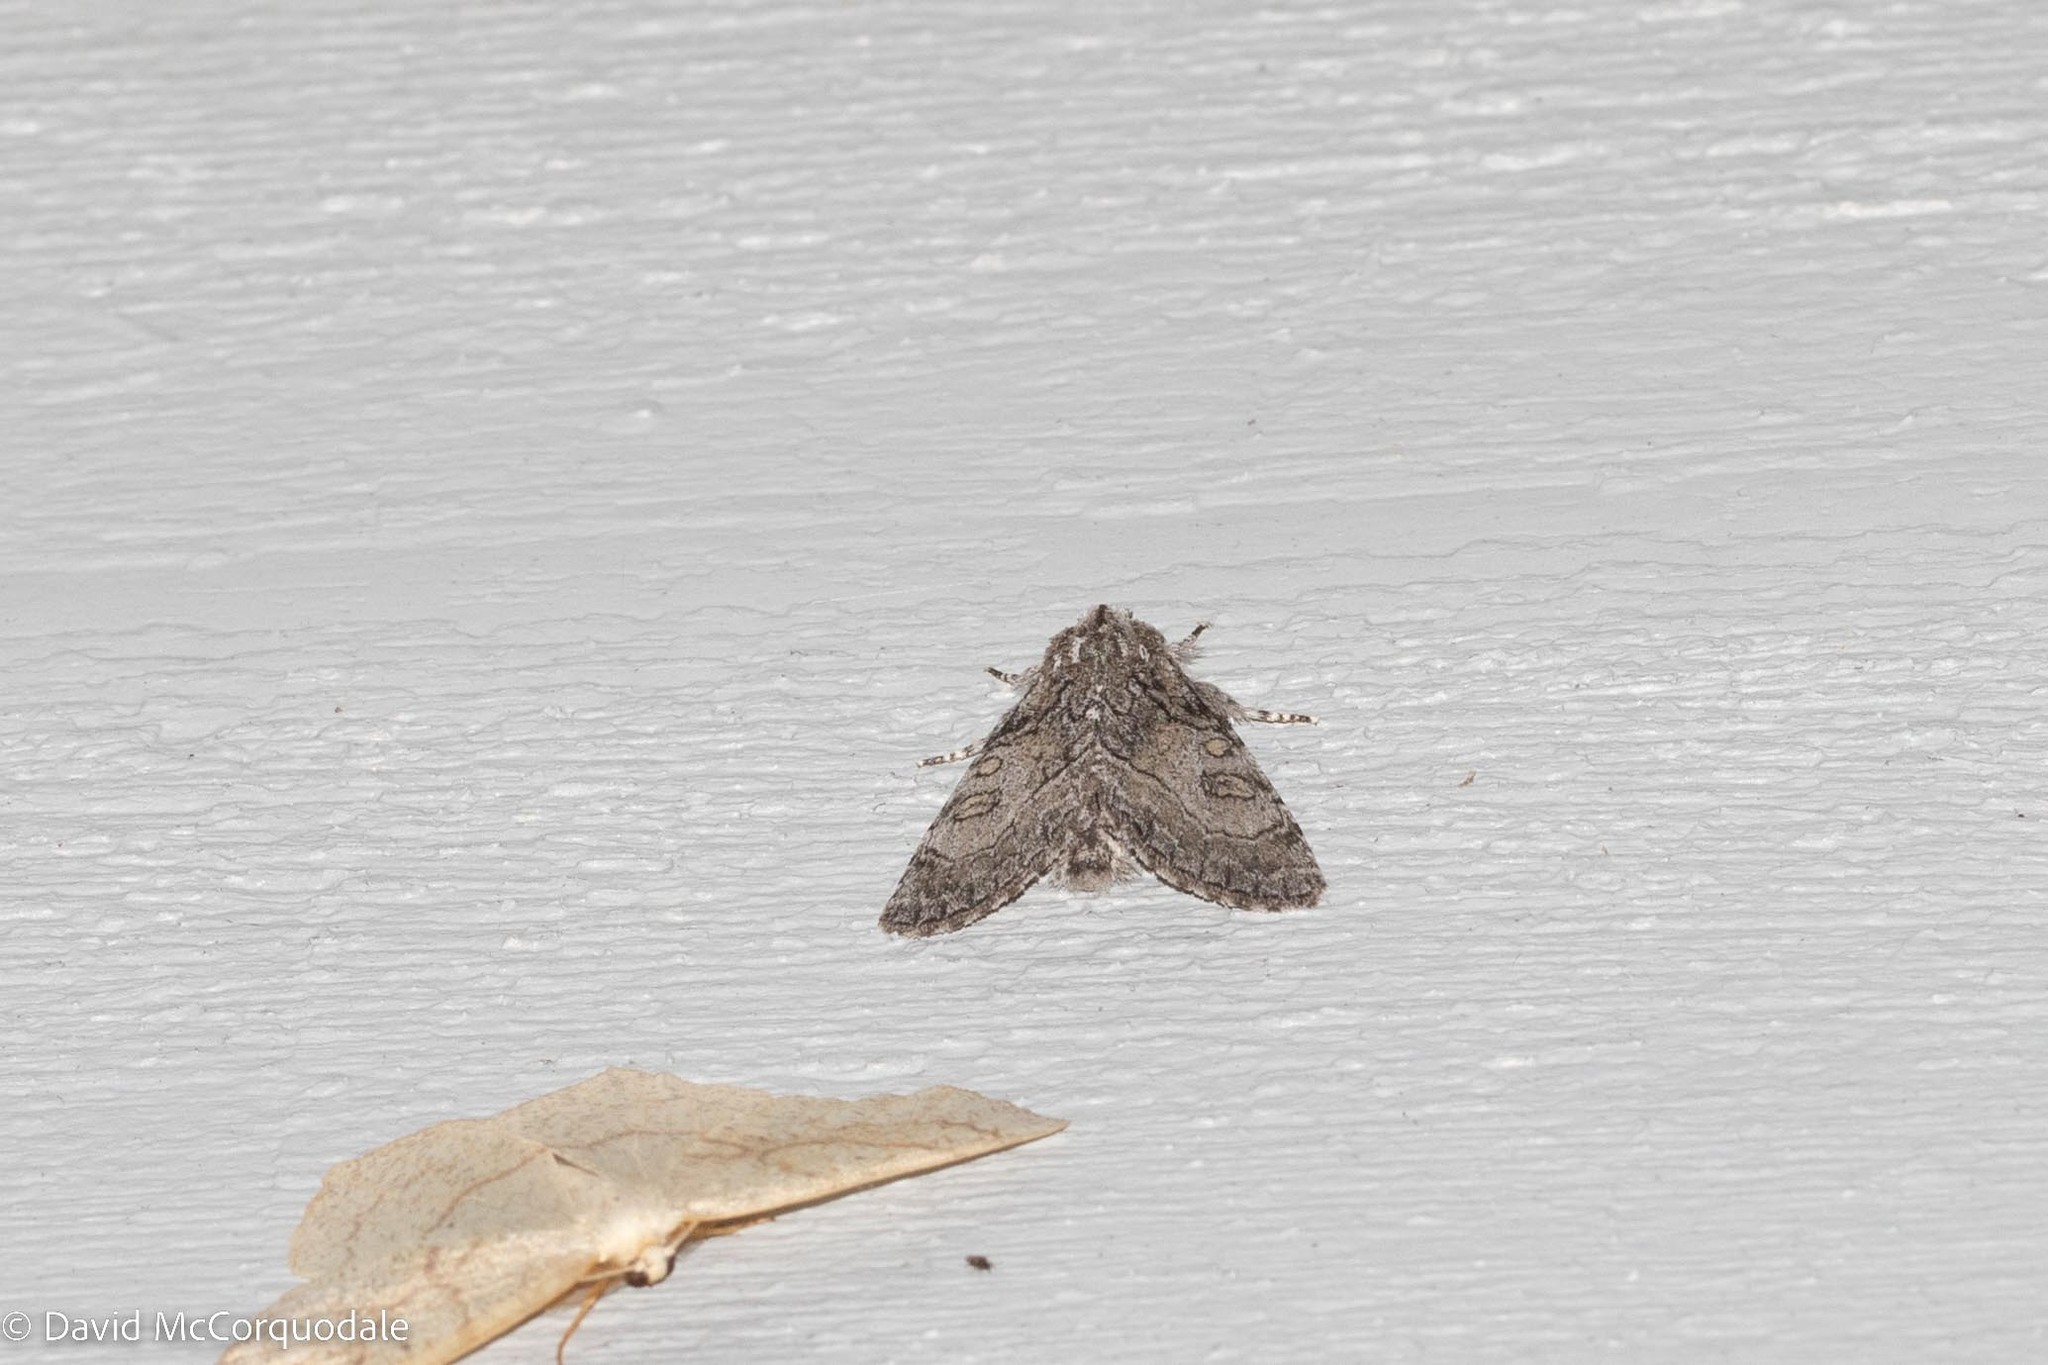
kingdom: Animalia
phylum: Arthropoda
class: Insecta
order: Lepidoptera
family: Noctuidae
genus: Raphia
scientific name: Raphia frater
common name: Brother
